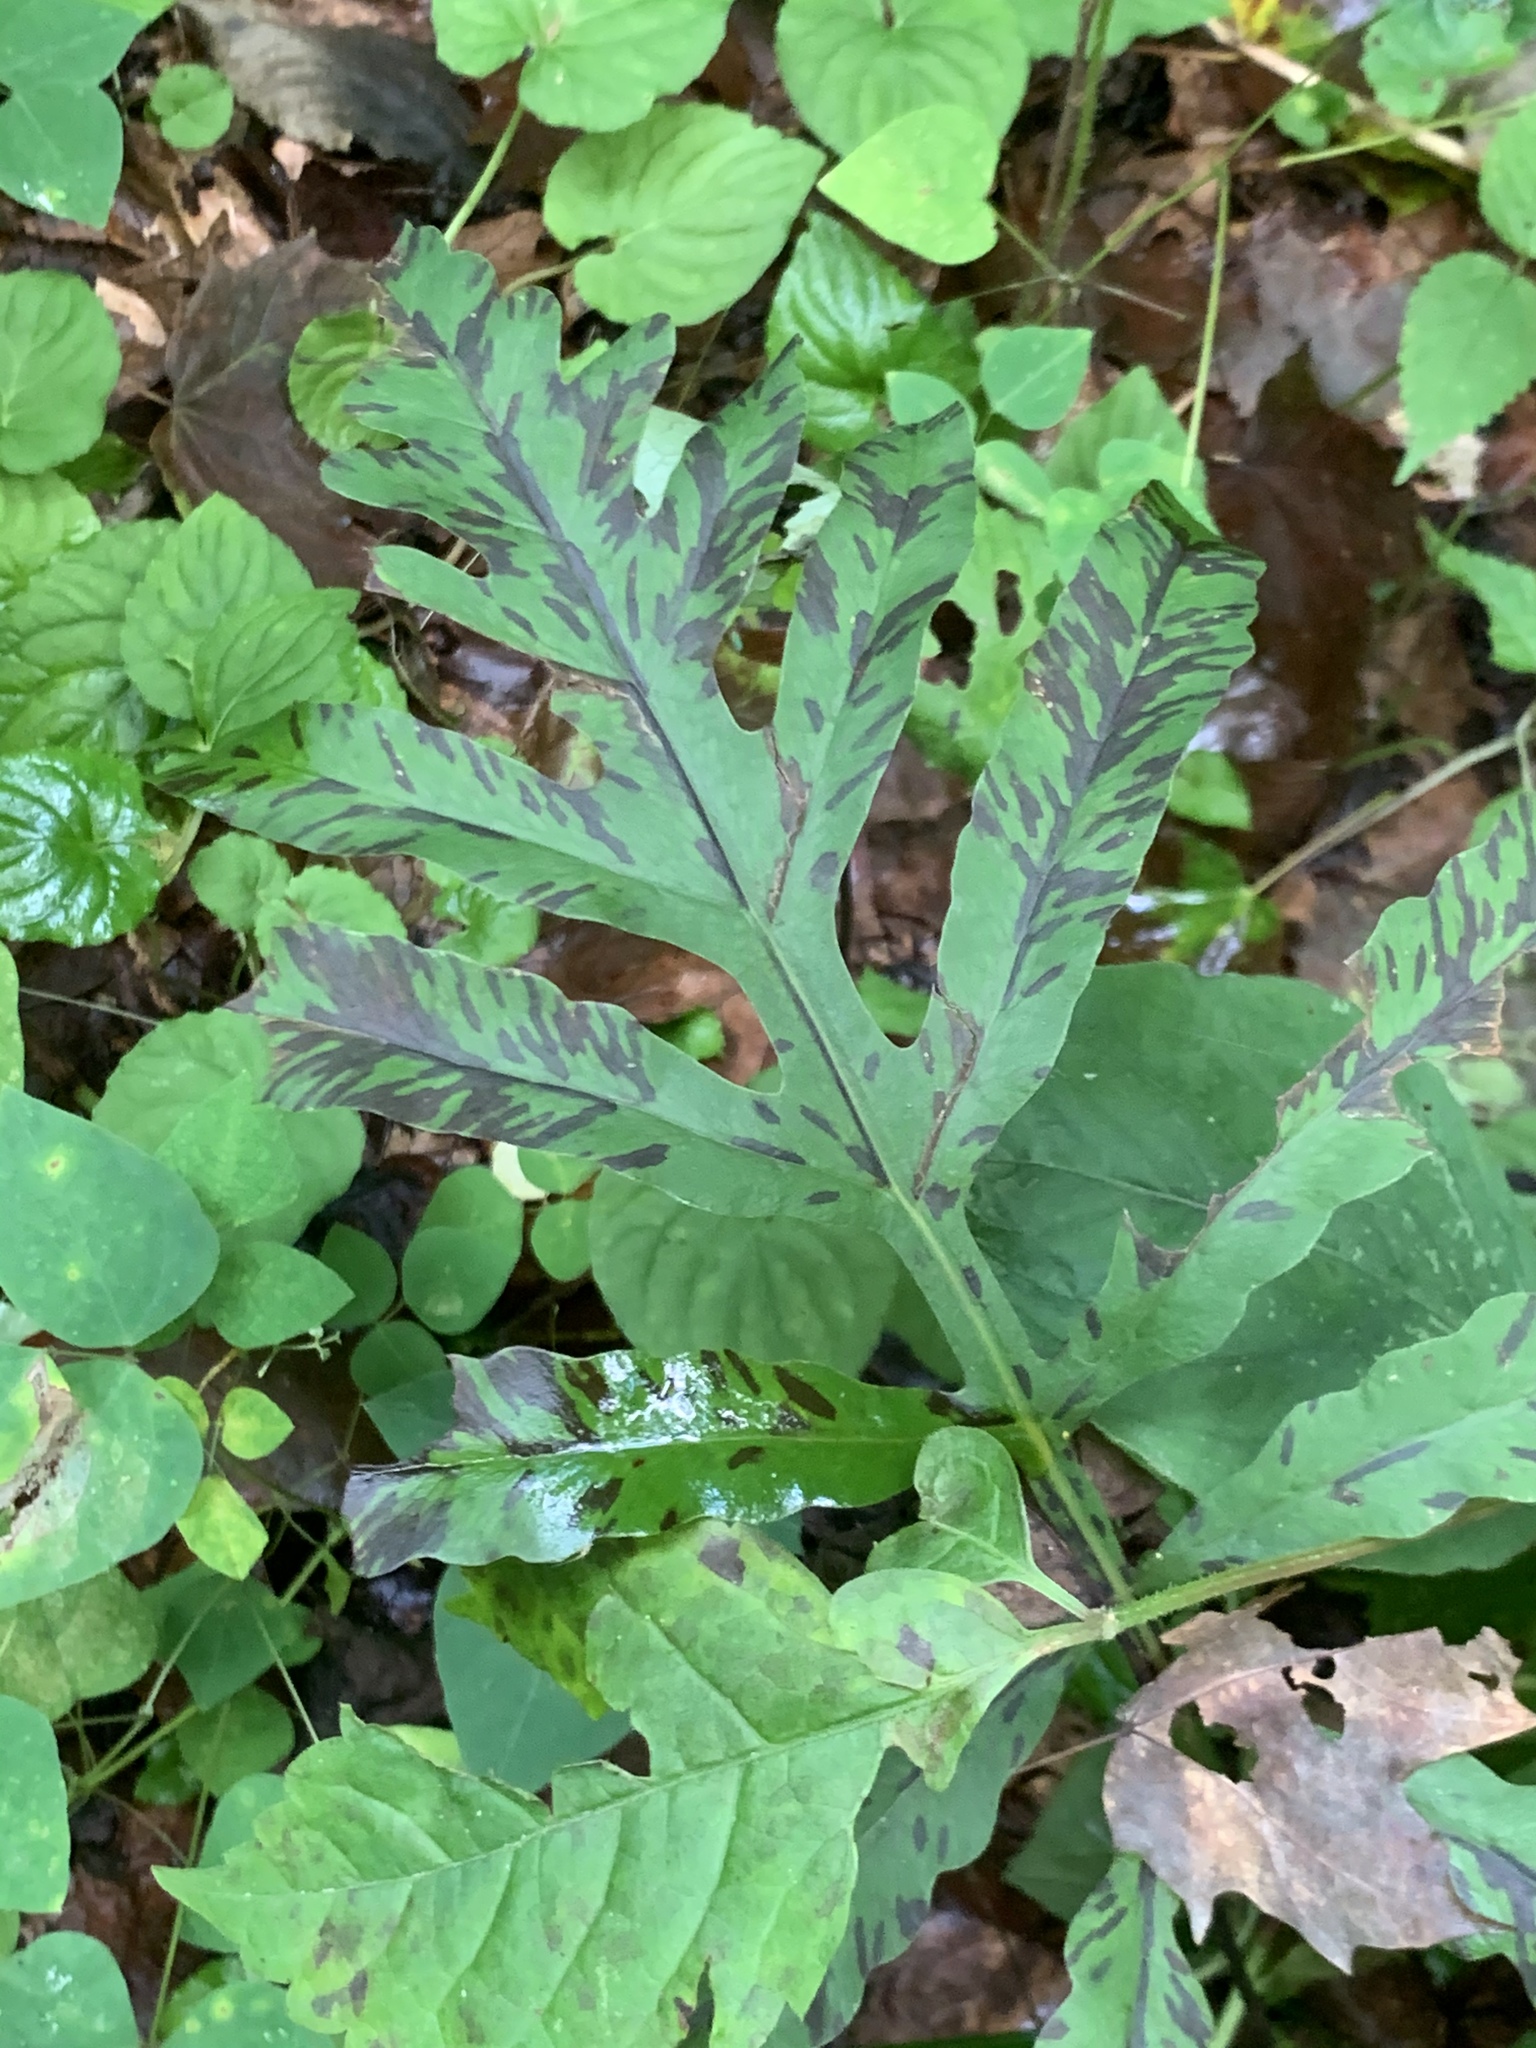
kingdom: Plantae
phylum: Tracheophyta
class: Polypodiopsida
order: Polypodiales
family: Onocleaceae
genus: Onoclea
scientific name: Onoclea sensibilis
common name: Sensitive fern
